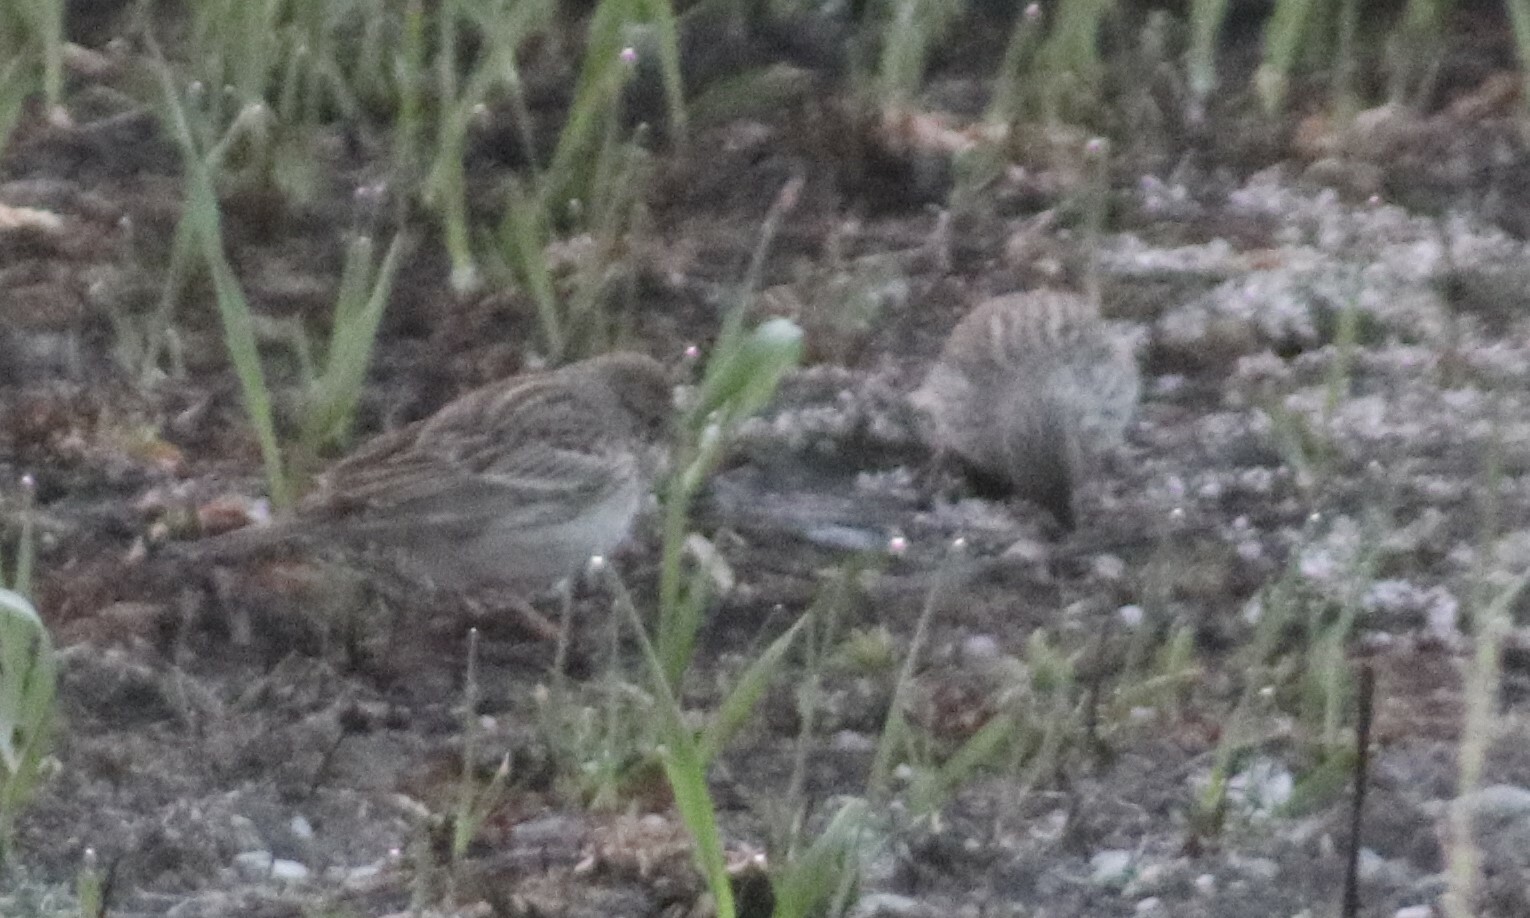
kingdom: Animalia
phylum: Chordata
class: Aves
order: Passeriformes
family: Passerellidae
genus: Pooecetes
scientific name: Pooecetes gramineus
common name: Vesper sparrow
